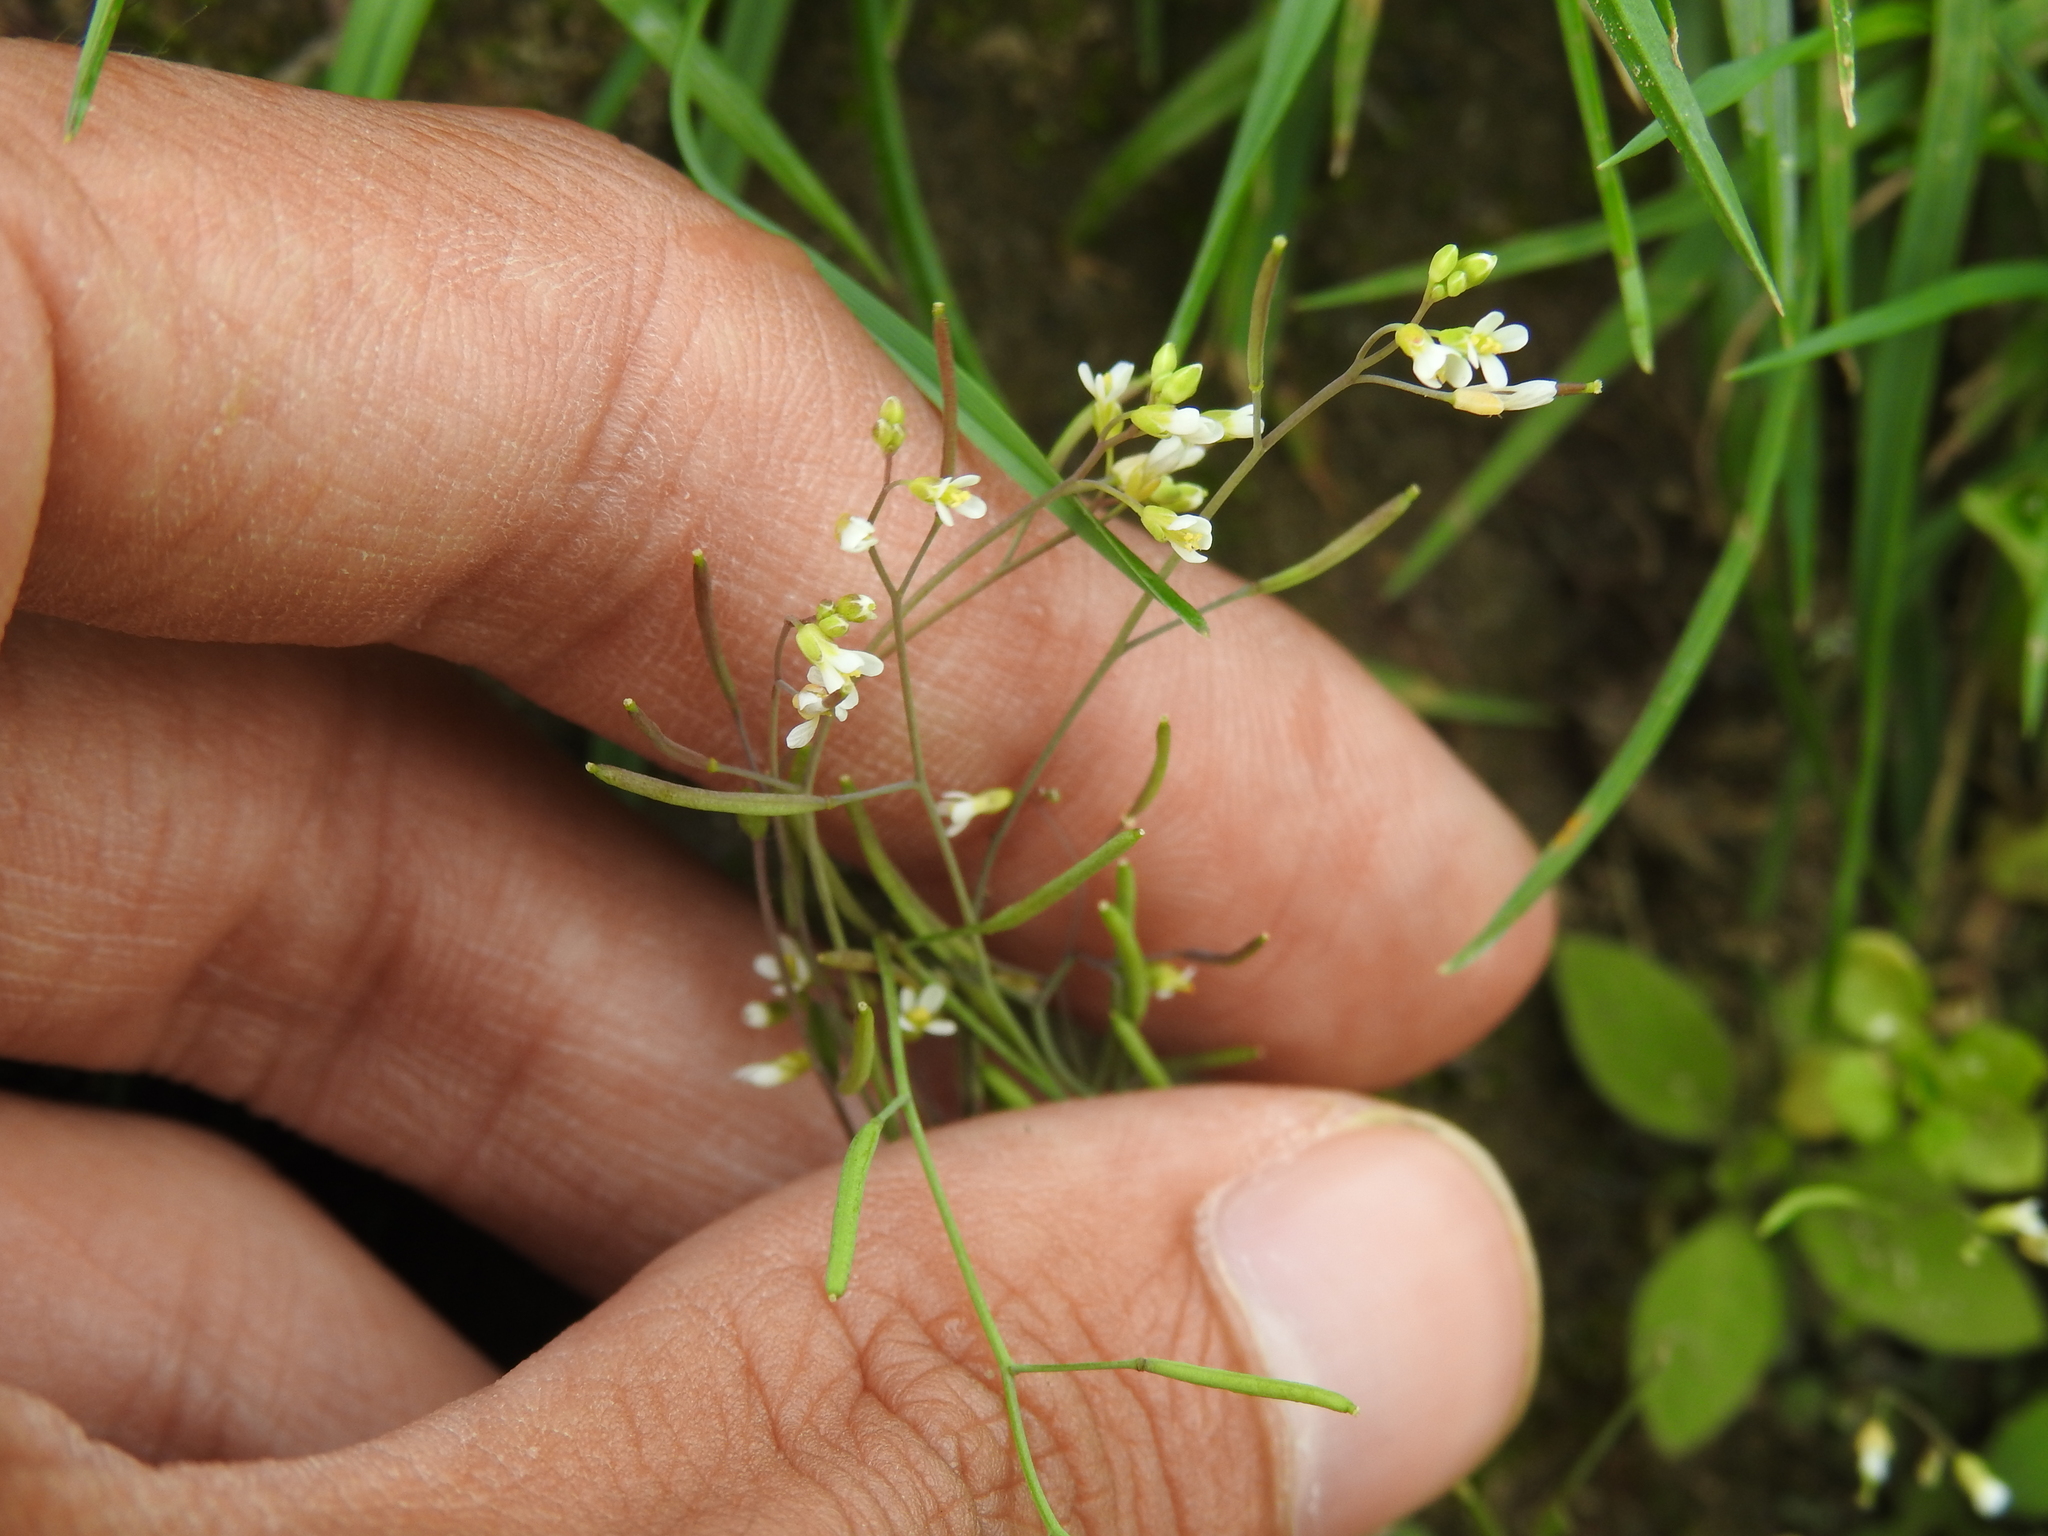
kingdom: Plantae
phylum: Tracheophyta
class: Magnoliopsida
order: Brassicales
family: Brassicaceae
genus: Arabidopsis
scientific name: Arabidopsis thaliana
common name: Thale cress
